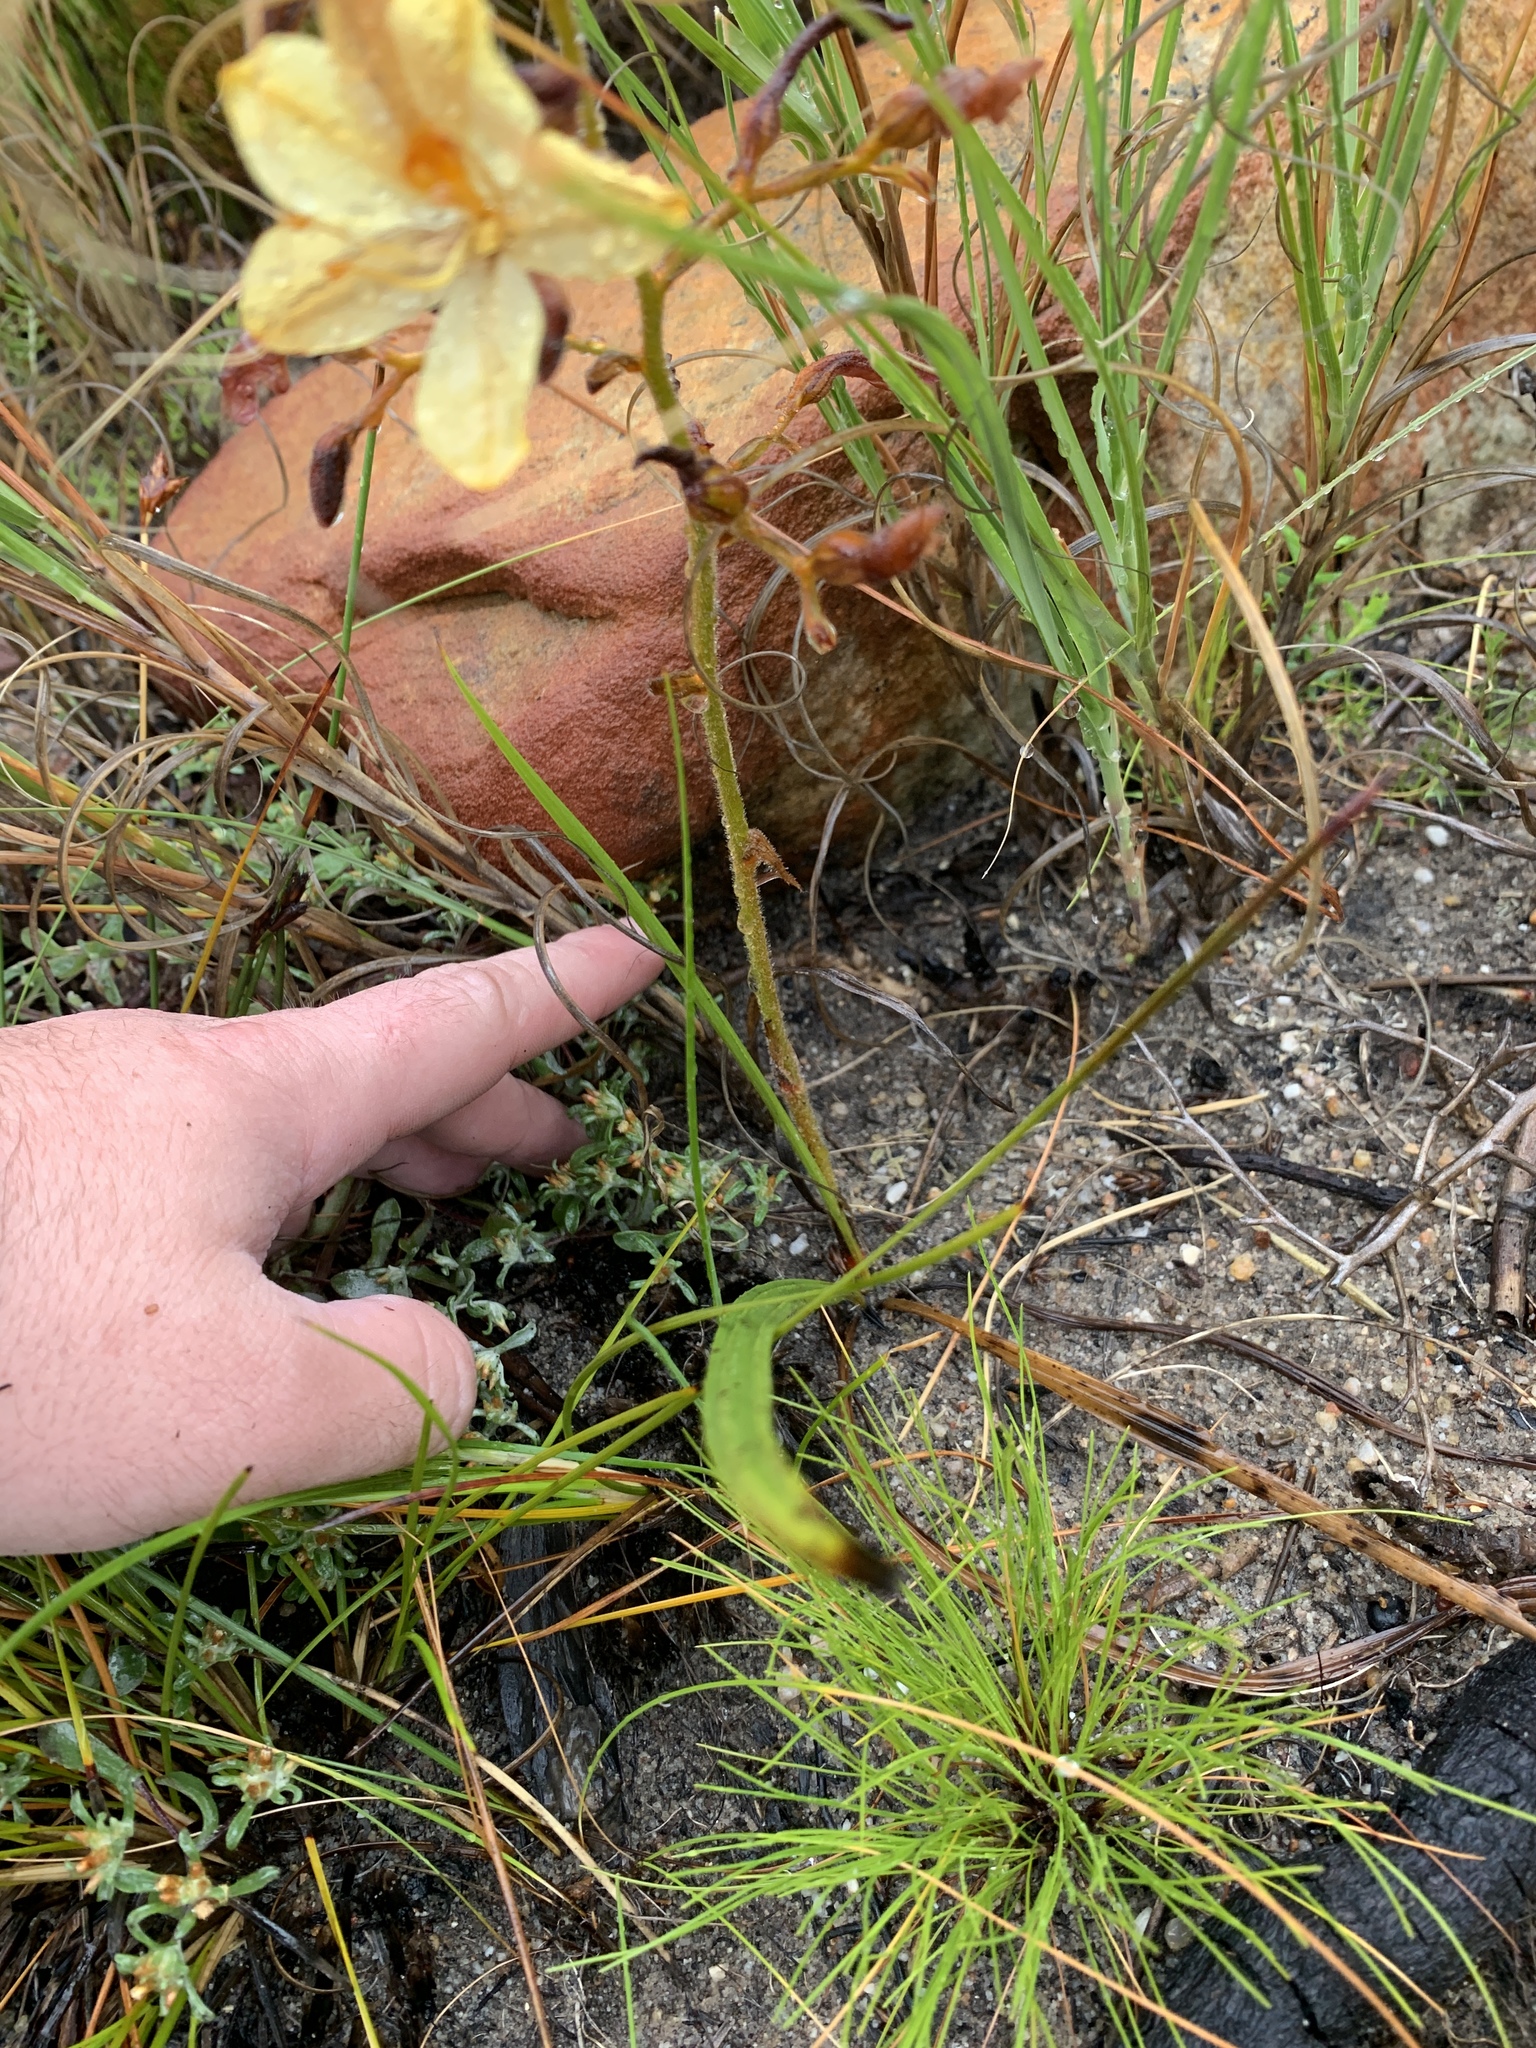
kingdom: Plantae
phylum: Tracheophyta
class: Liliopsida
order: Commelinales
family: Haemodoraceae
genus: Wachendorfia
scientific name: Wachendorfia paniculata
